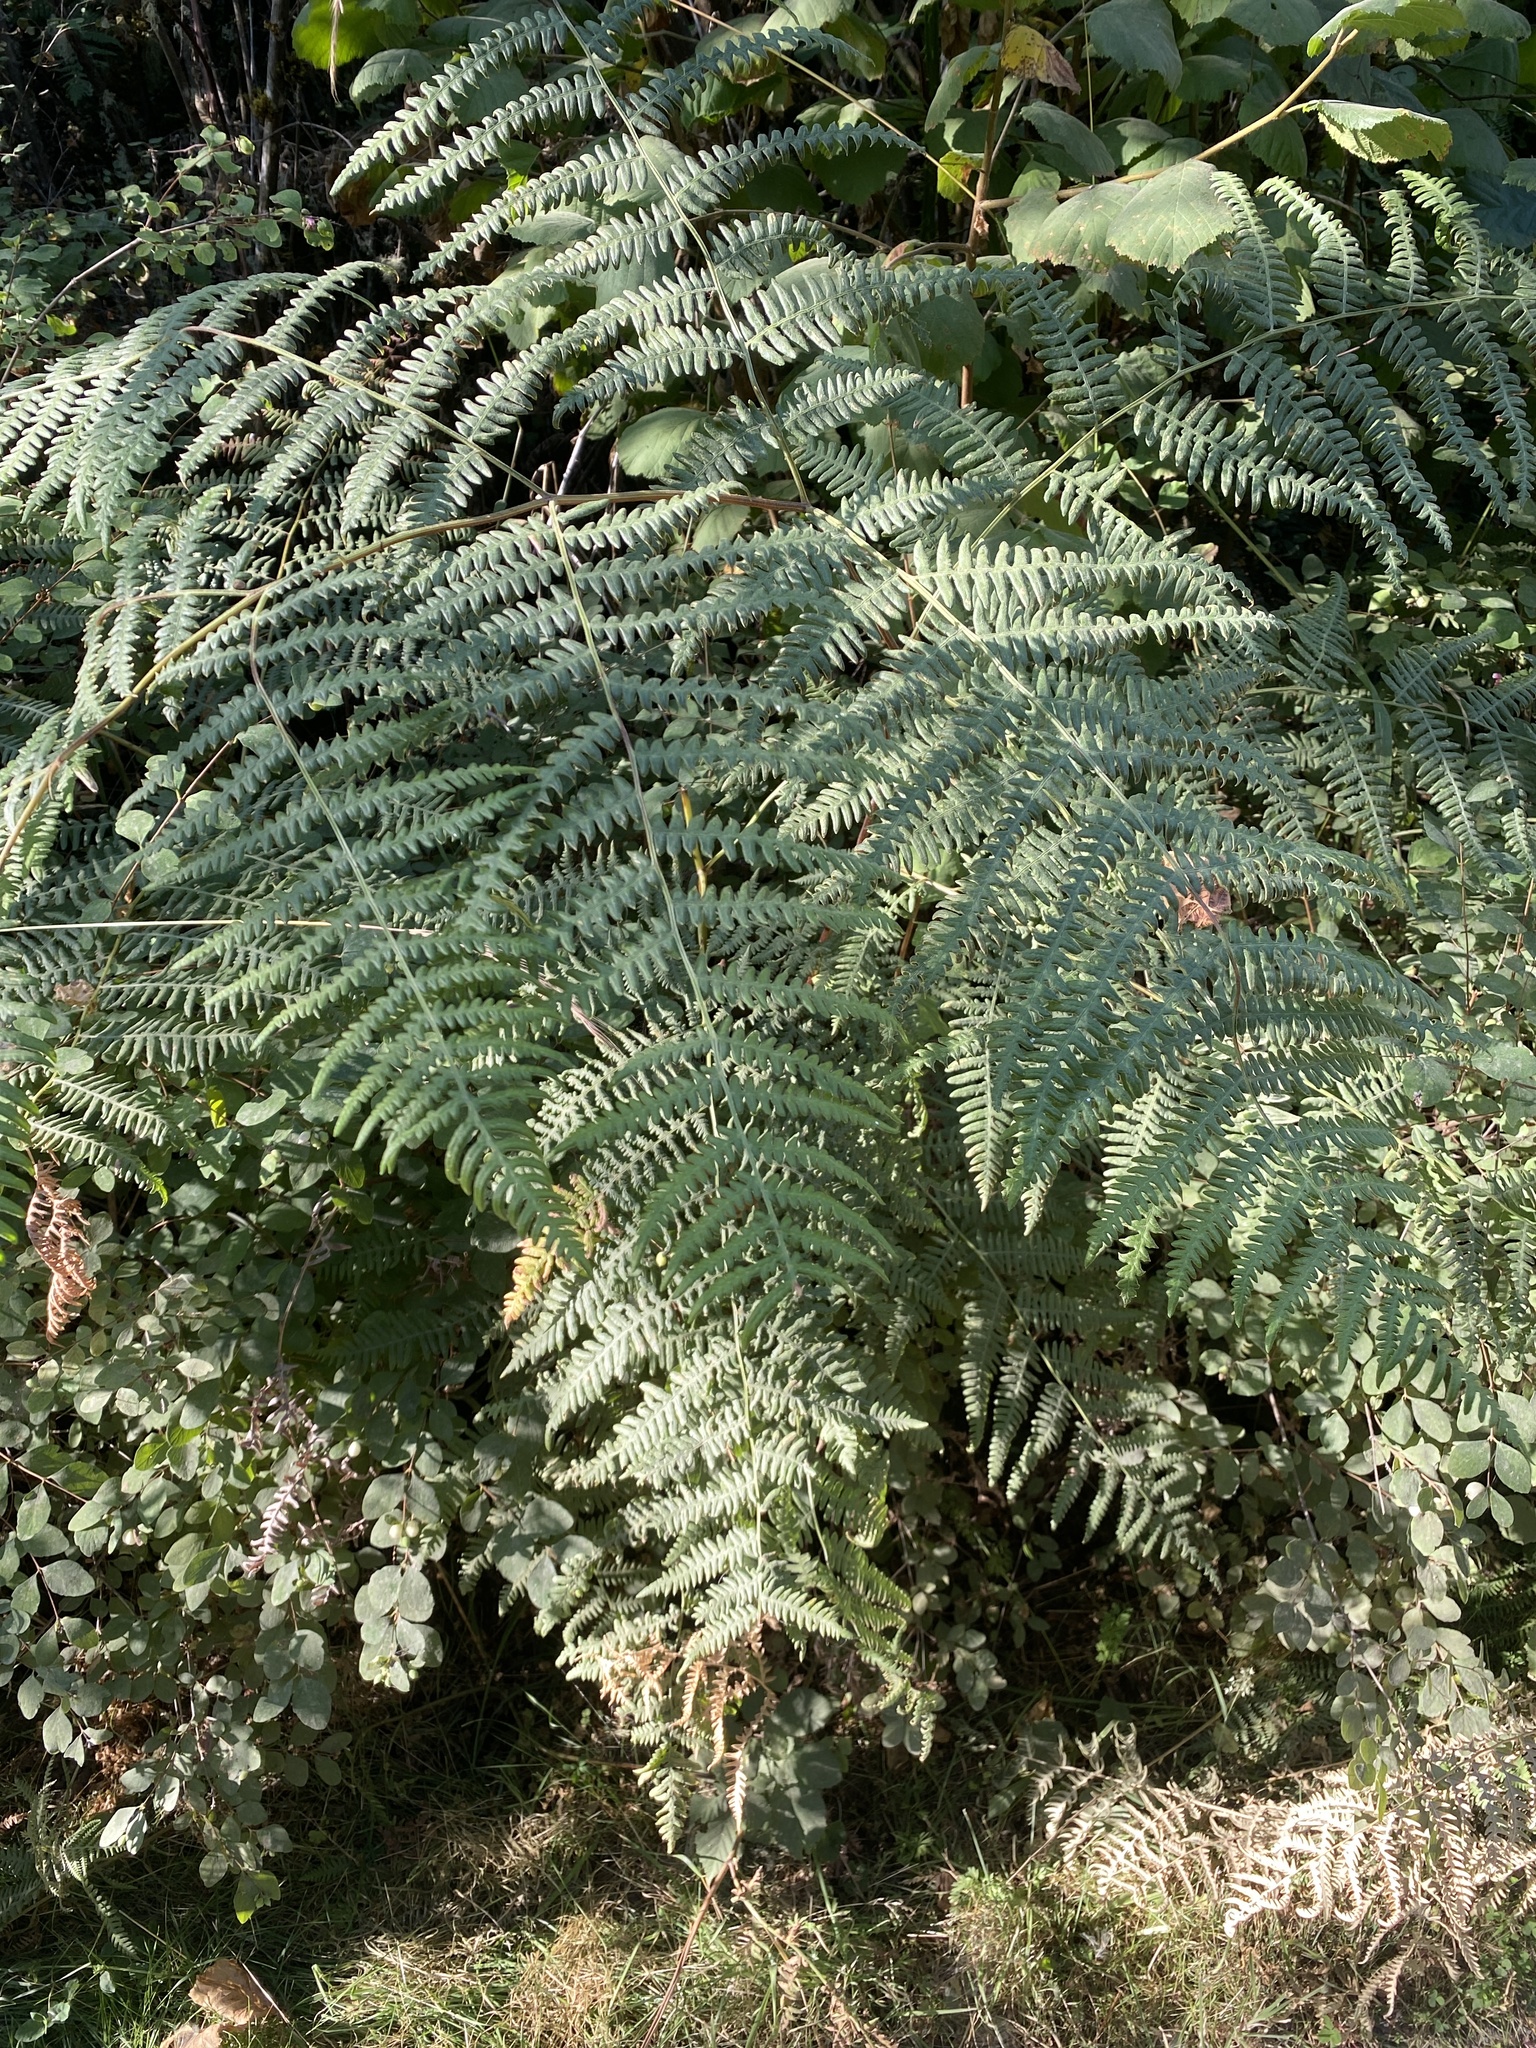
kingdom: Plantae
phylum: Tracheophyta
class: Polypodiopsida
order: Polypodiales
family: Dennstaedtiaceae
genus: Pteridium
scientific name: Pteridium aquilinum
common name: Bracken
